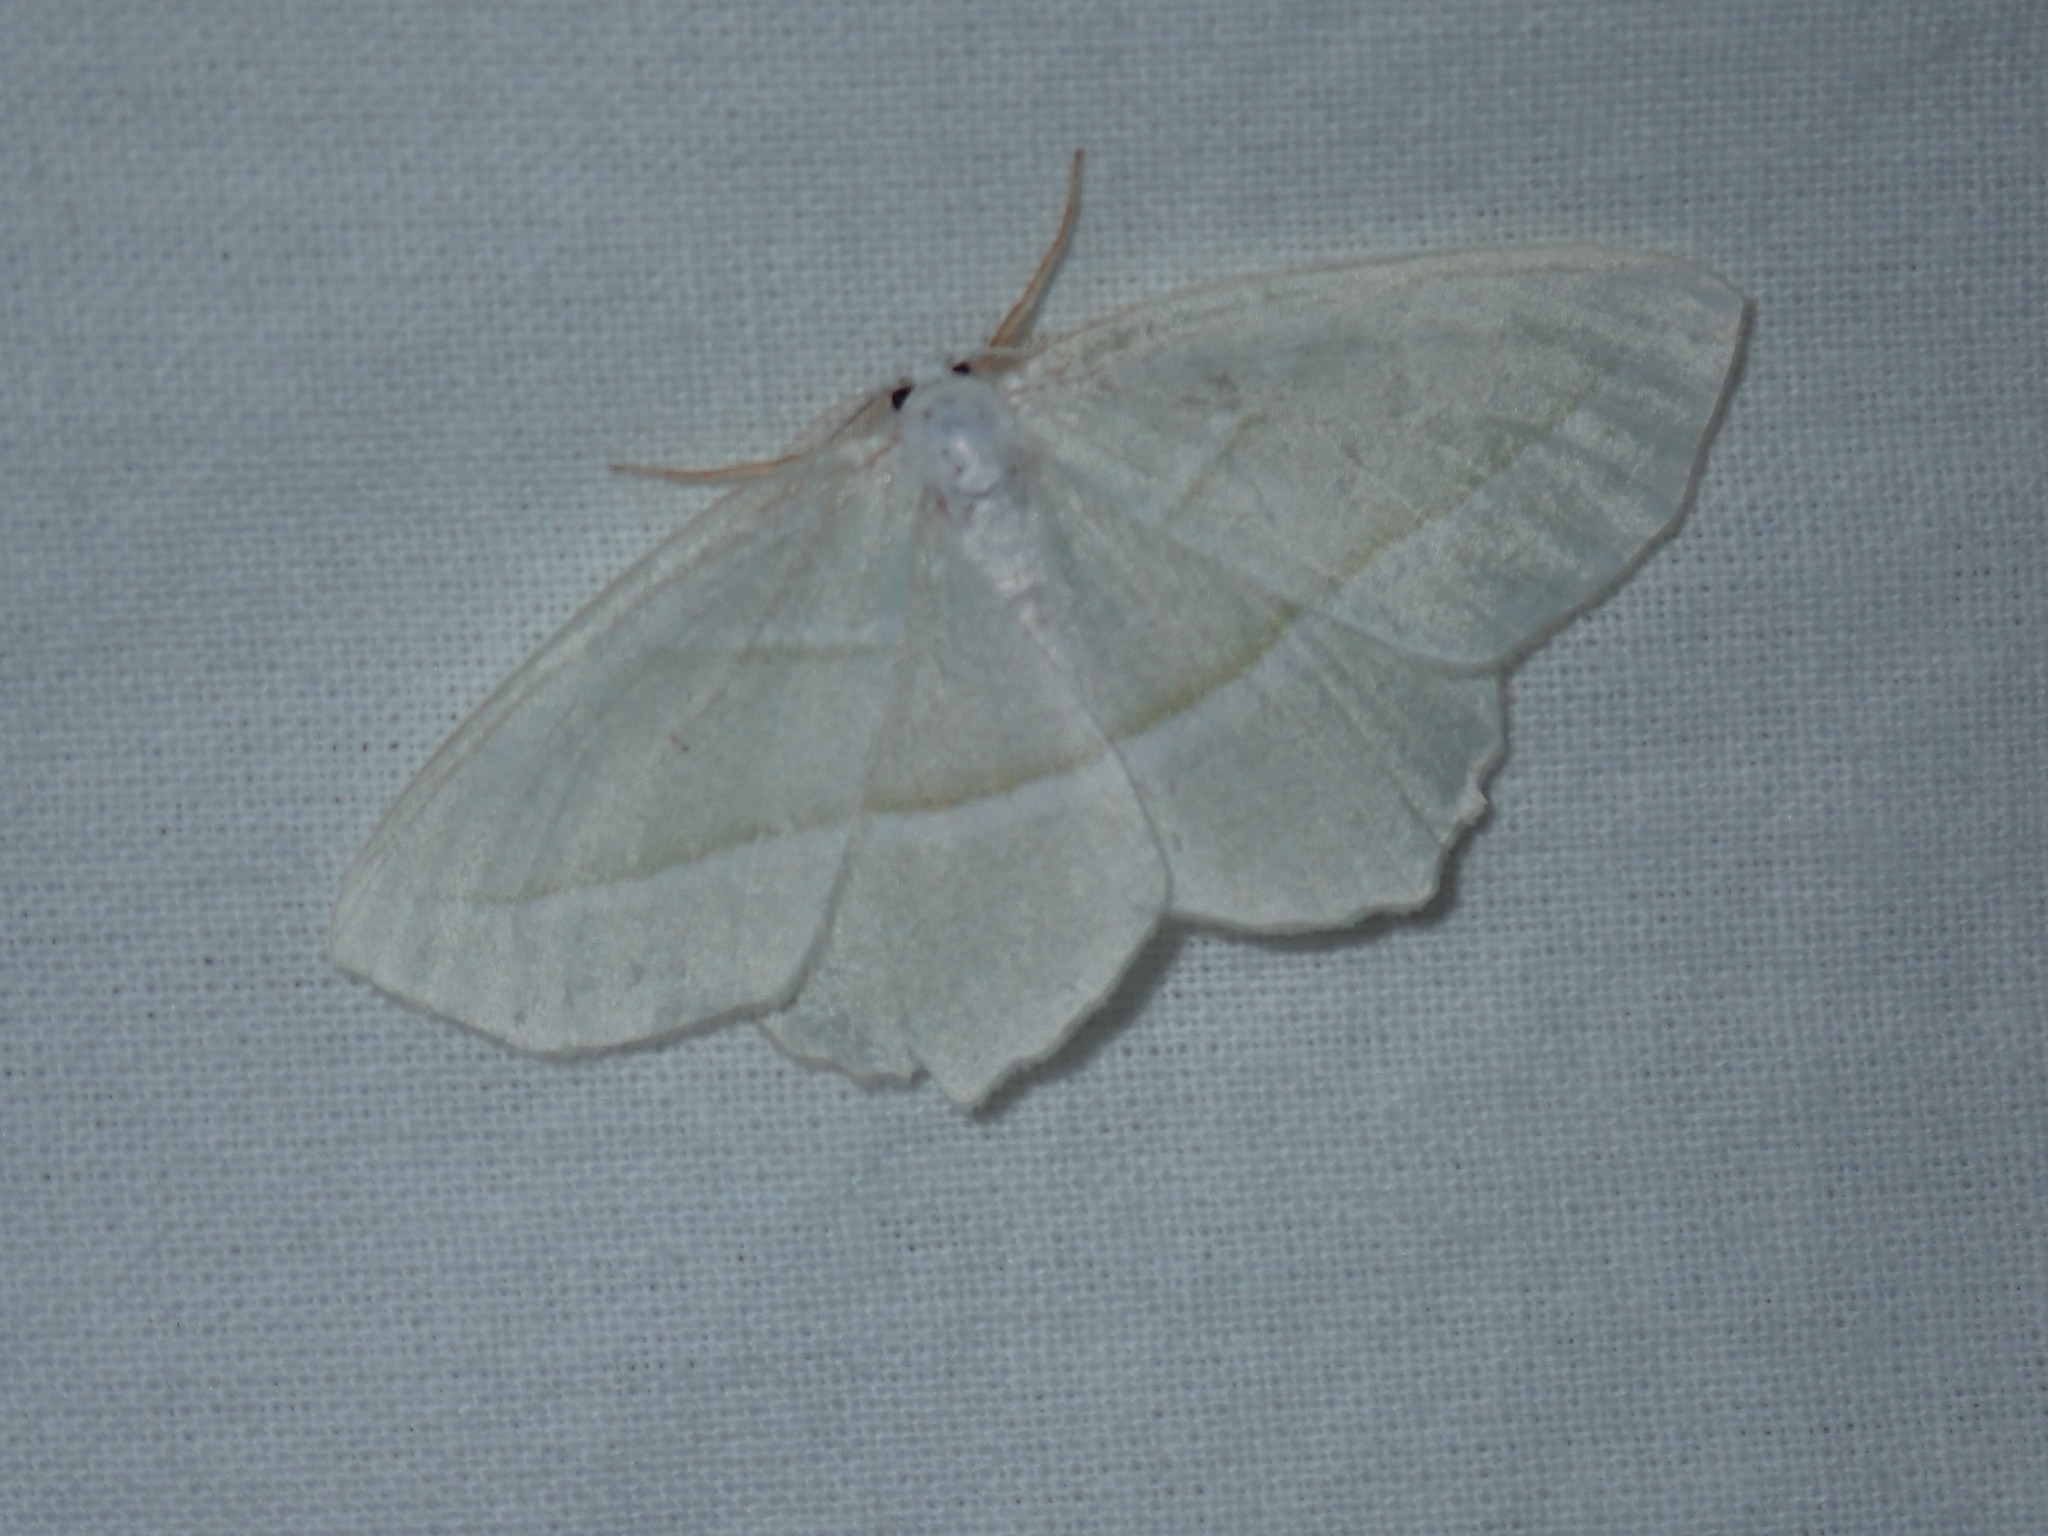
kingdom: Animalia
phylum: Arthropoda
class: Insecta
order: Lepidoptera
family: Geometridae
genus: Campaea
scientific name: Campaea perlata
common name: Fringed looper
